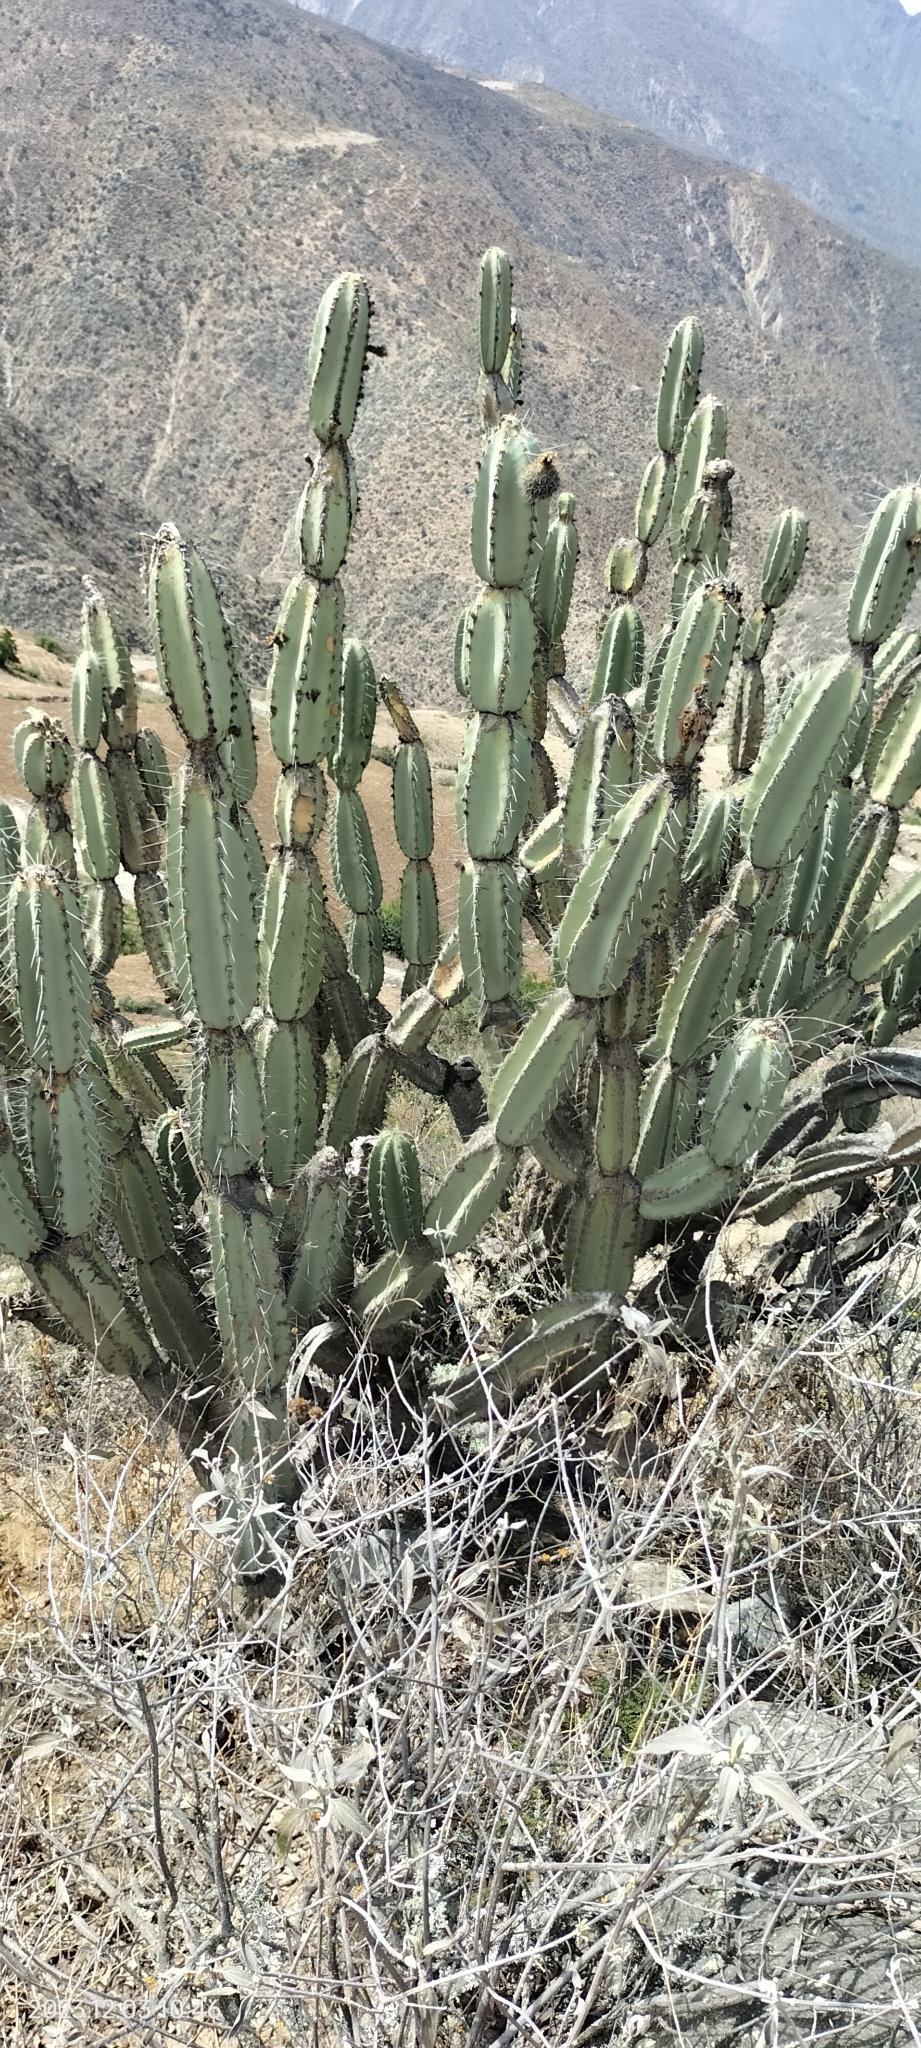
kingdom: Plantae
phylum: Tracheophyta
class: Magnoliopsida
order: Caryophyllales
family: Cactaceae
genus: Armatocereus
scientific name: Armatocereus laetus
